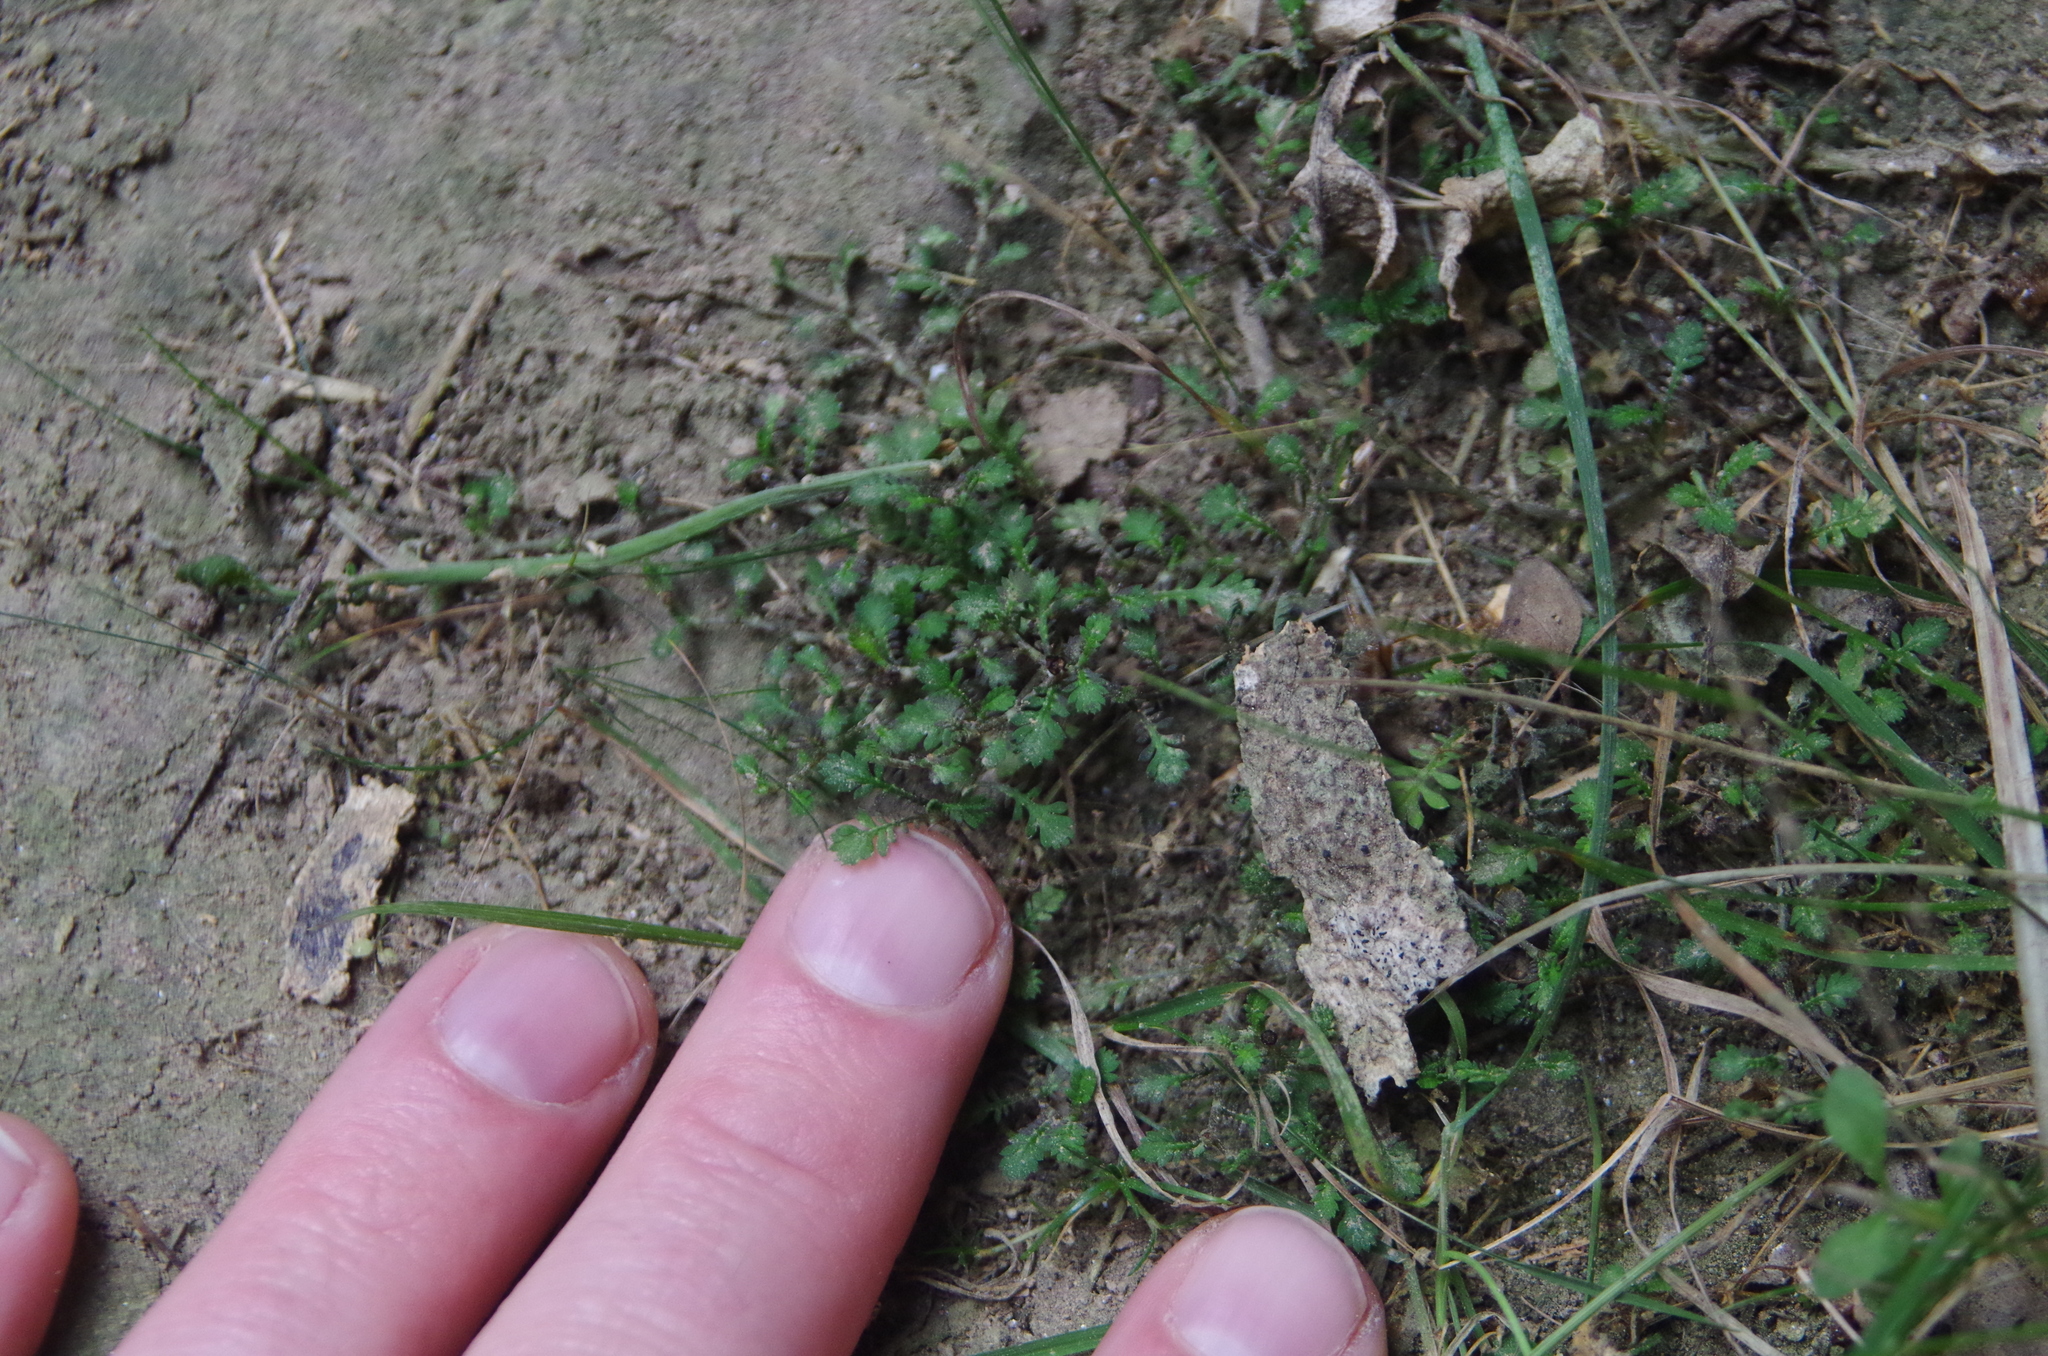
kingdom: Plantae
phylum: Tracheophyta
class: Magnoliopsida
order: Asterales
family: Asteraceae
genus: Leptinella
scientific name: Leptinella nana
